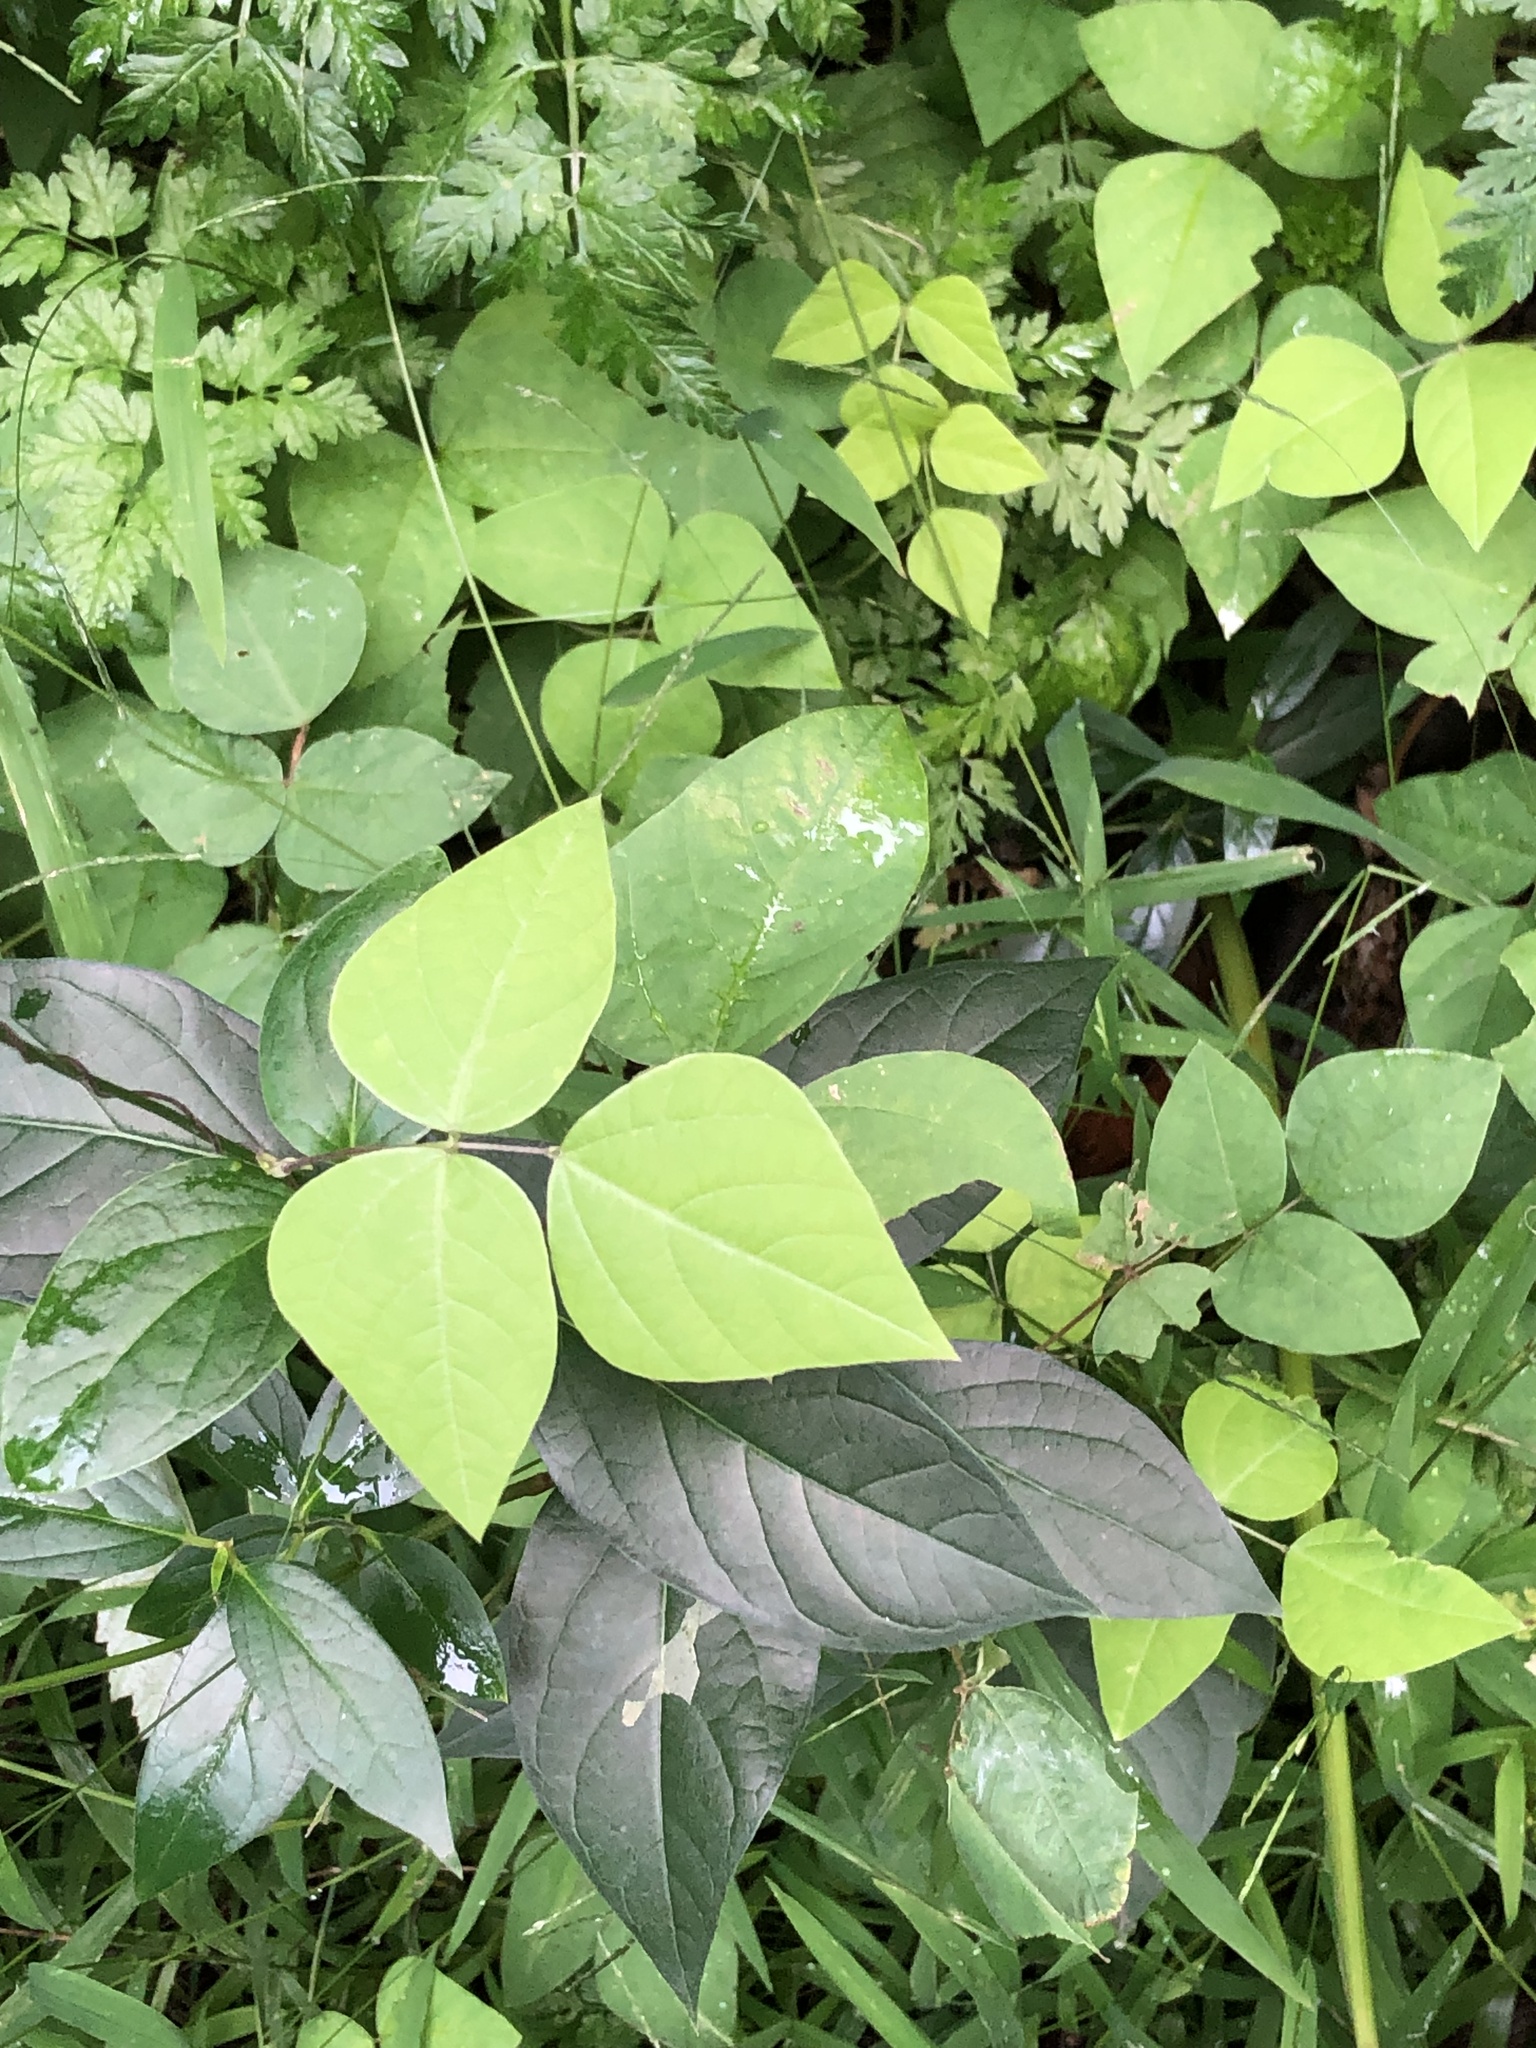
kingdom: Plantae
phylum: Tracheophyta
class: Magnoliopsida
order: Fabales
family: Fabaceae
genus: Amphicarpaea
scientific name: Amphicarpaea bracteata
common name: American hog peanut
